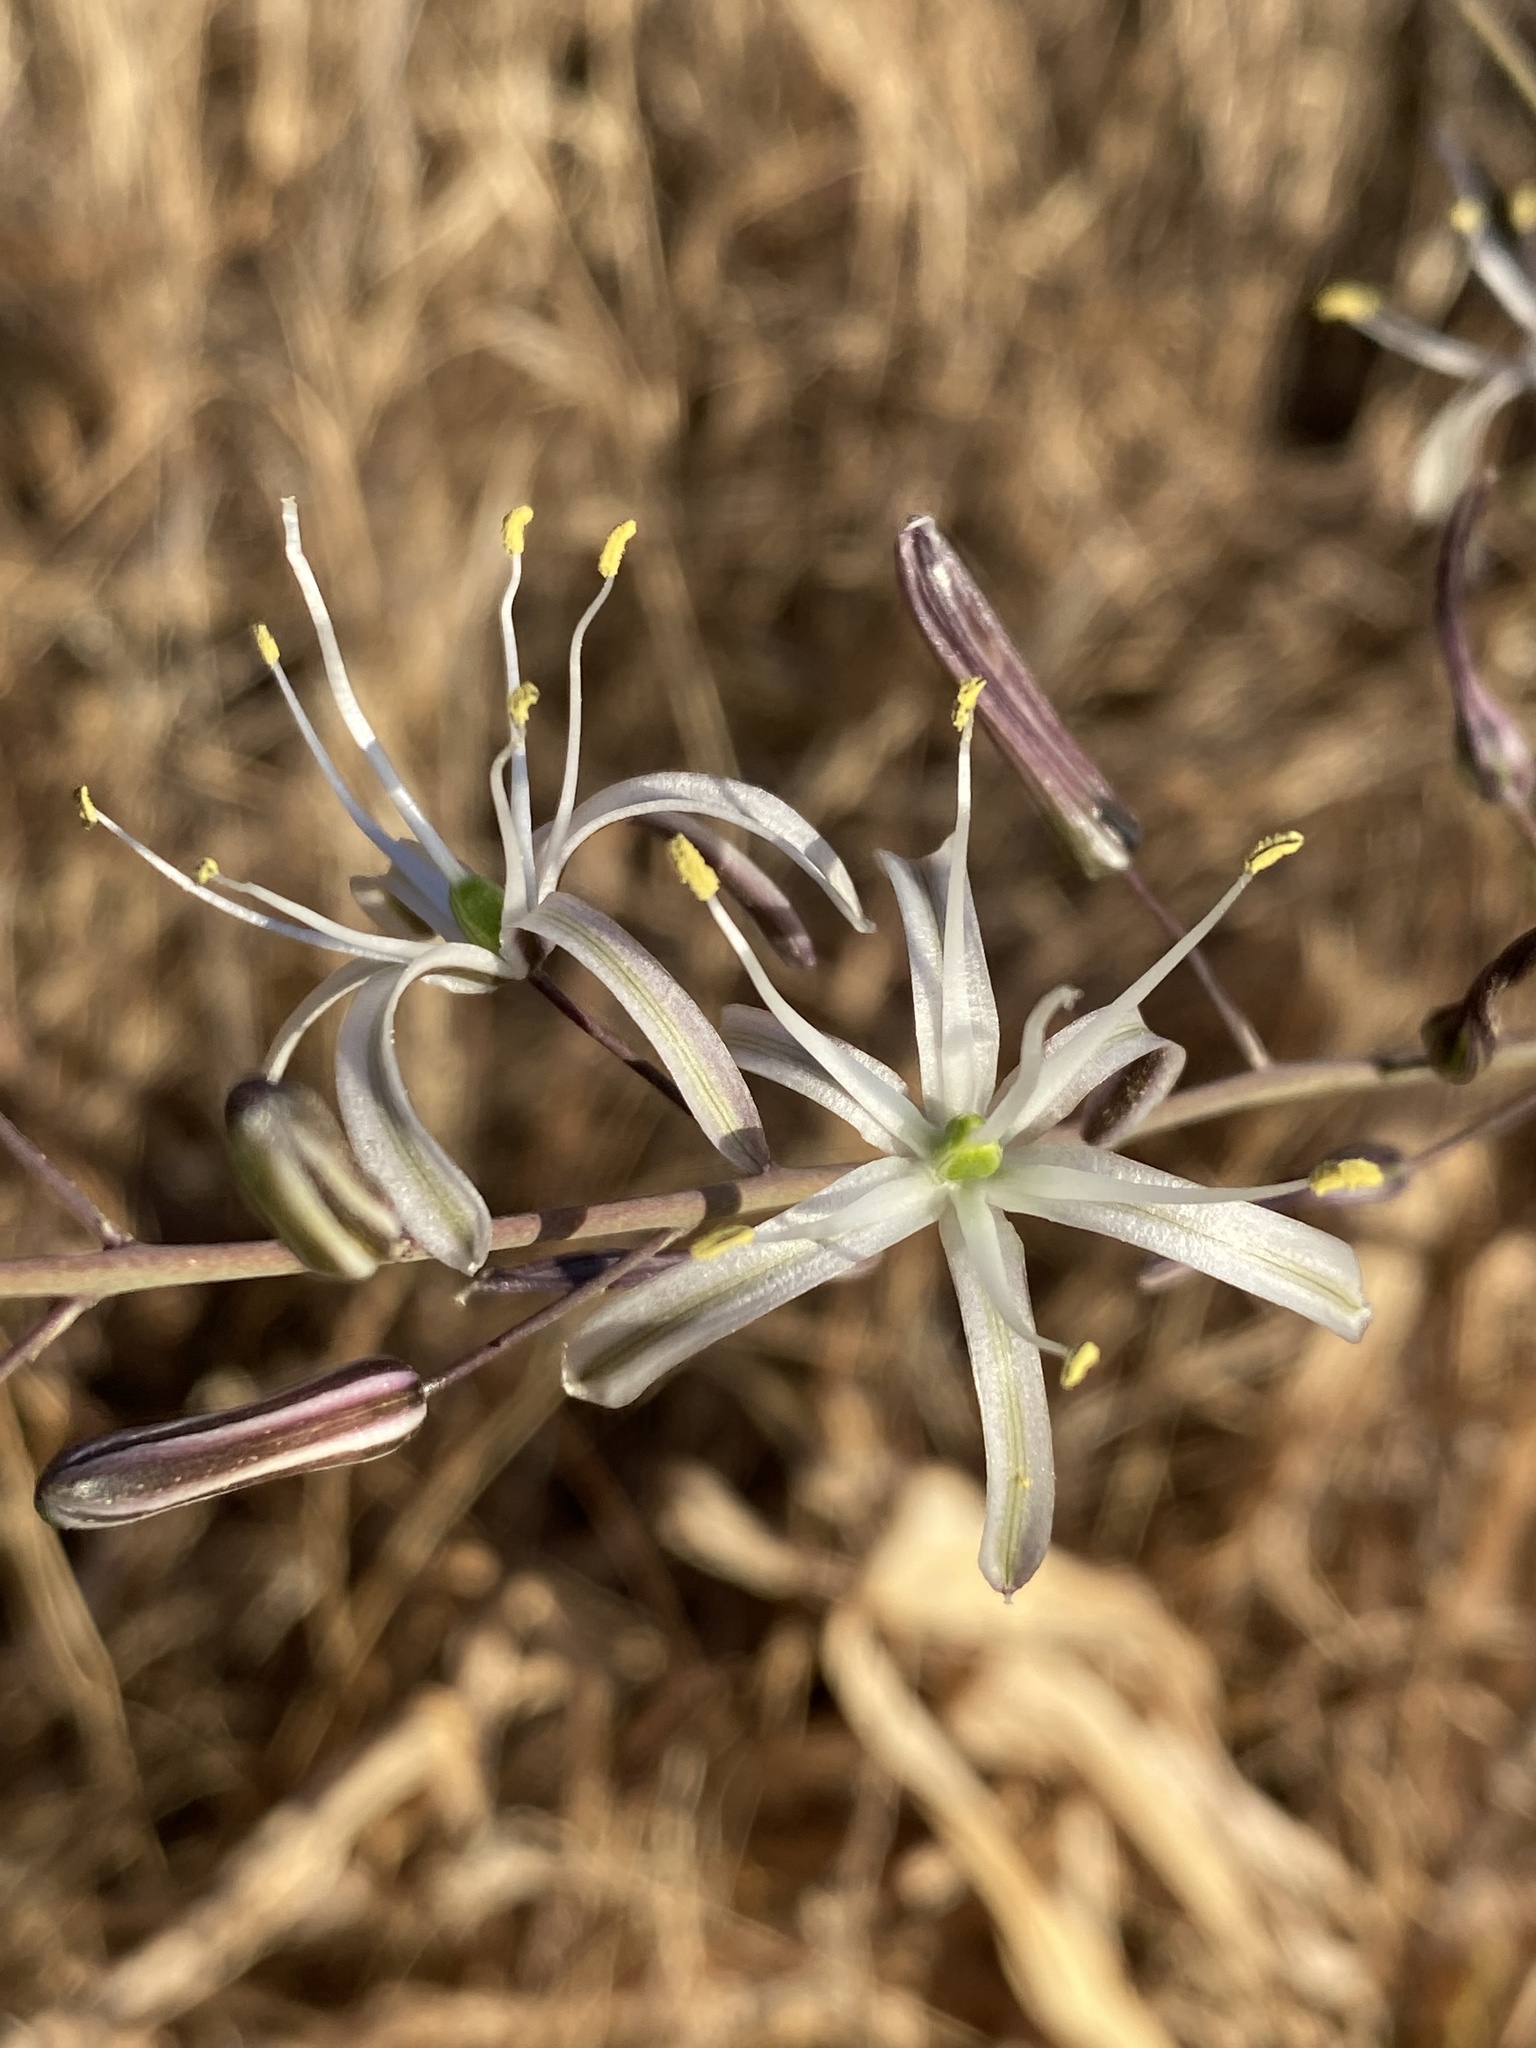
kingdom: Plantae
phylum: Tracheophyta
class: Liliopsida
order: Asparagales
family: Asparagaceae
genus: Chlorogalum
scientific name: Chlorogalum pomeridianum
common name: Amole
